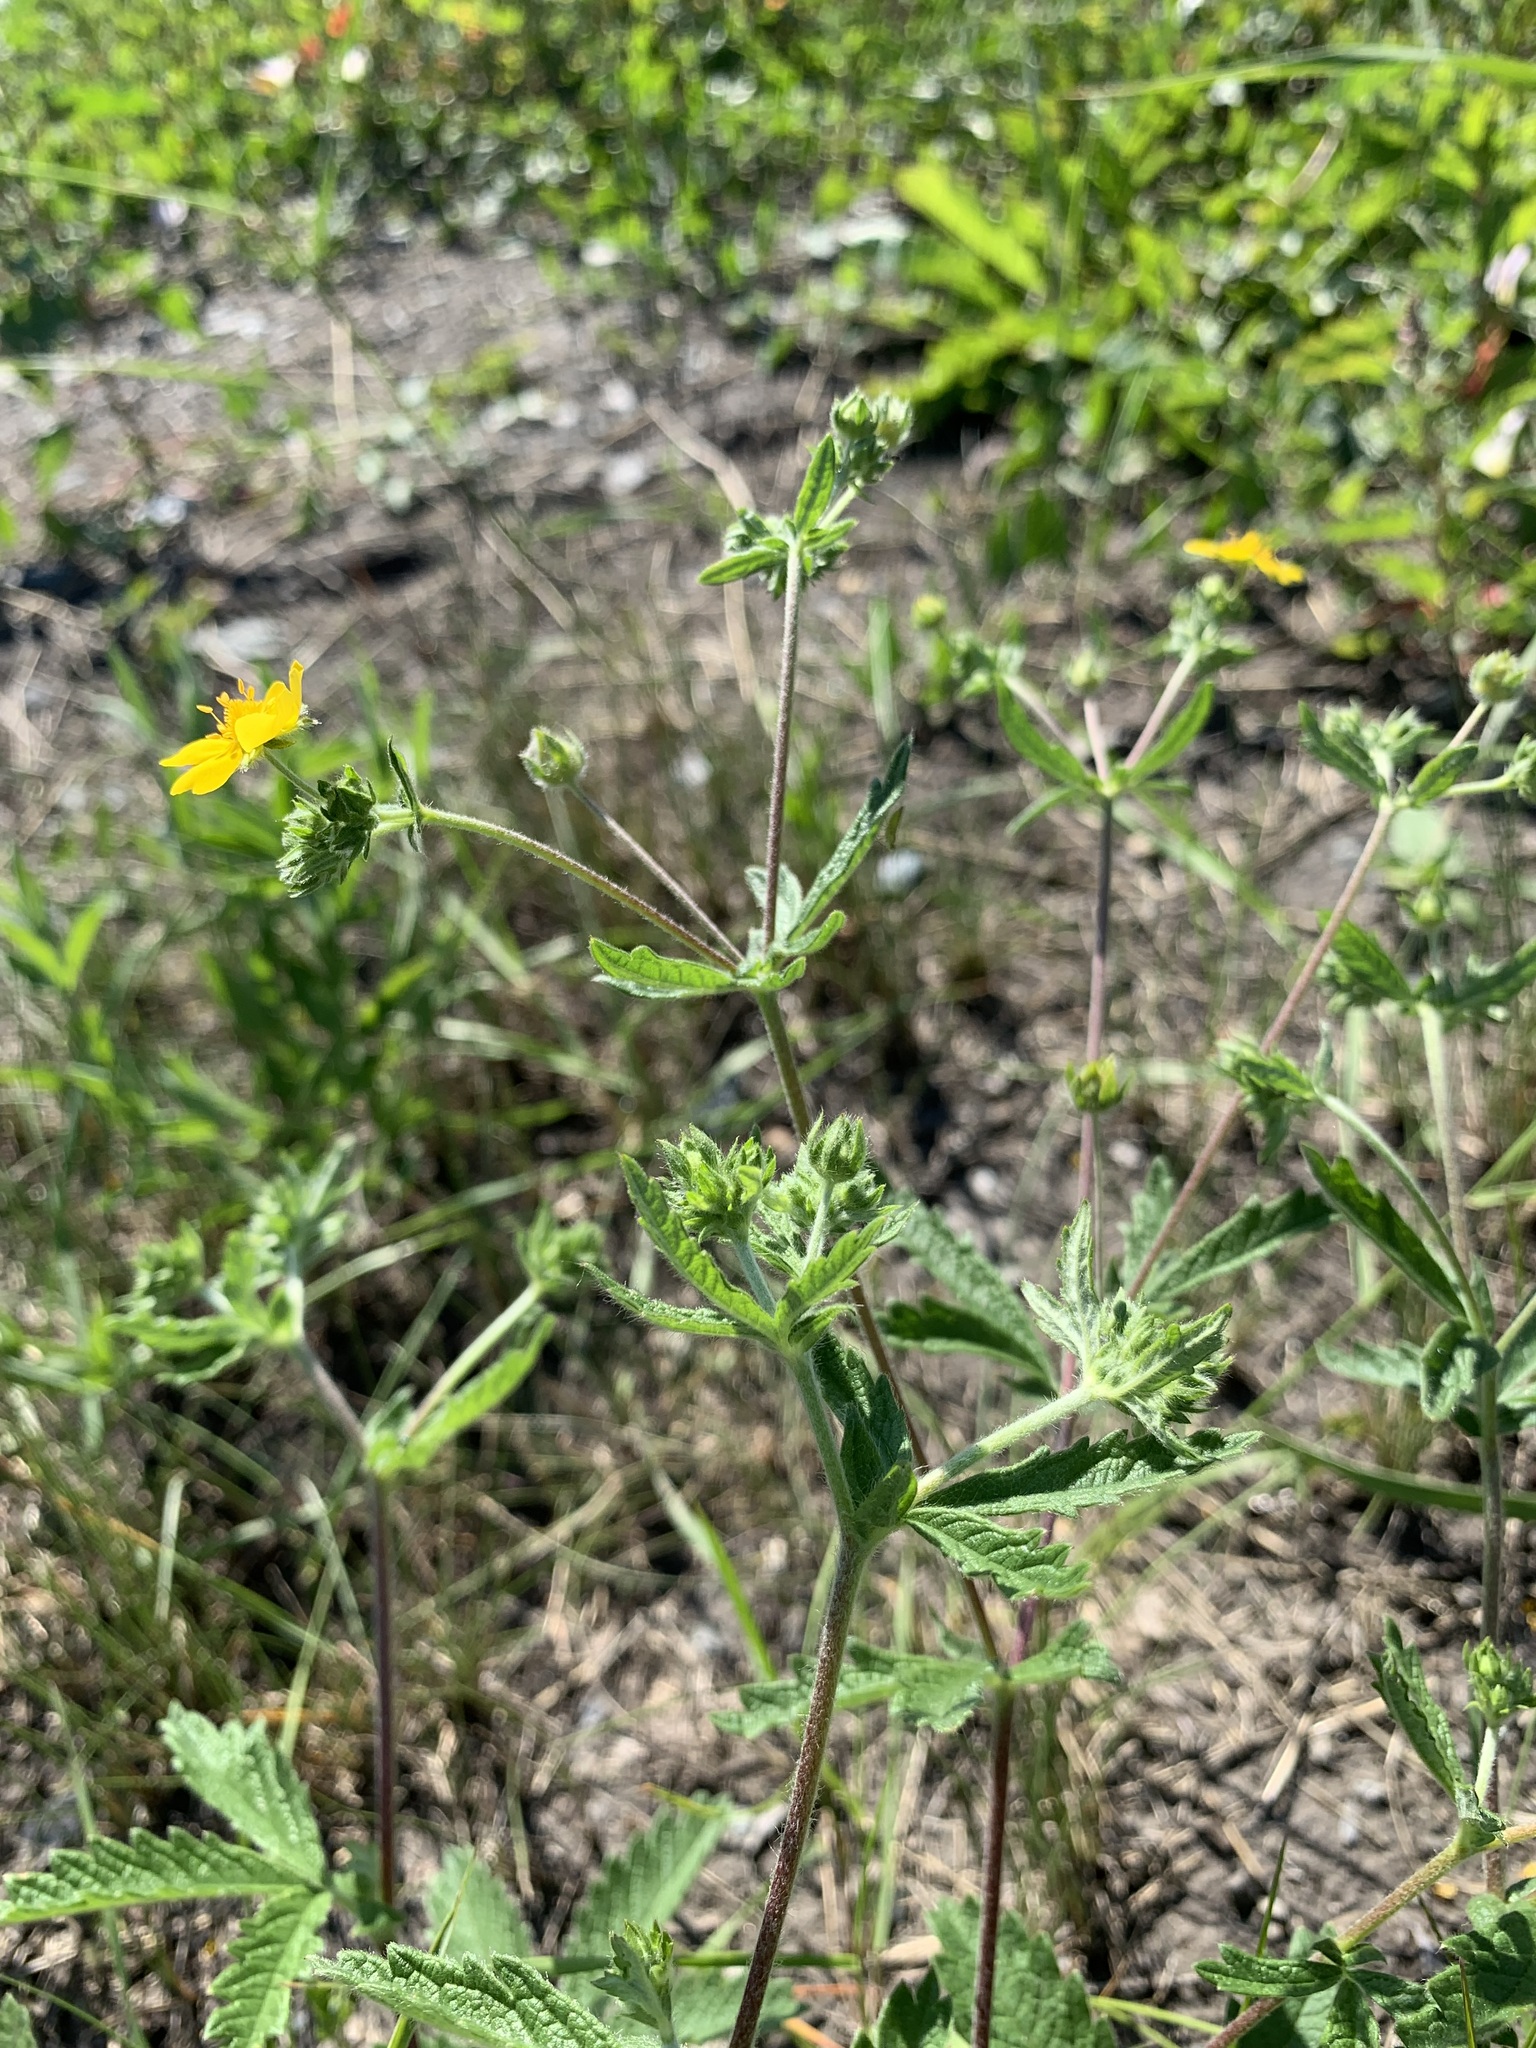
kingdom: Plantae
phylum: Tracheophyta
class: Magnoliopsida
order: Rosales
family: Rosaceae
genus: Potentilla
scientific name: Potentilla thuringiaca
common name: European cinquefoil
